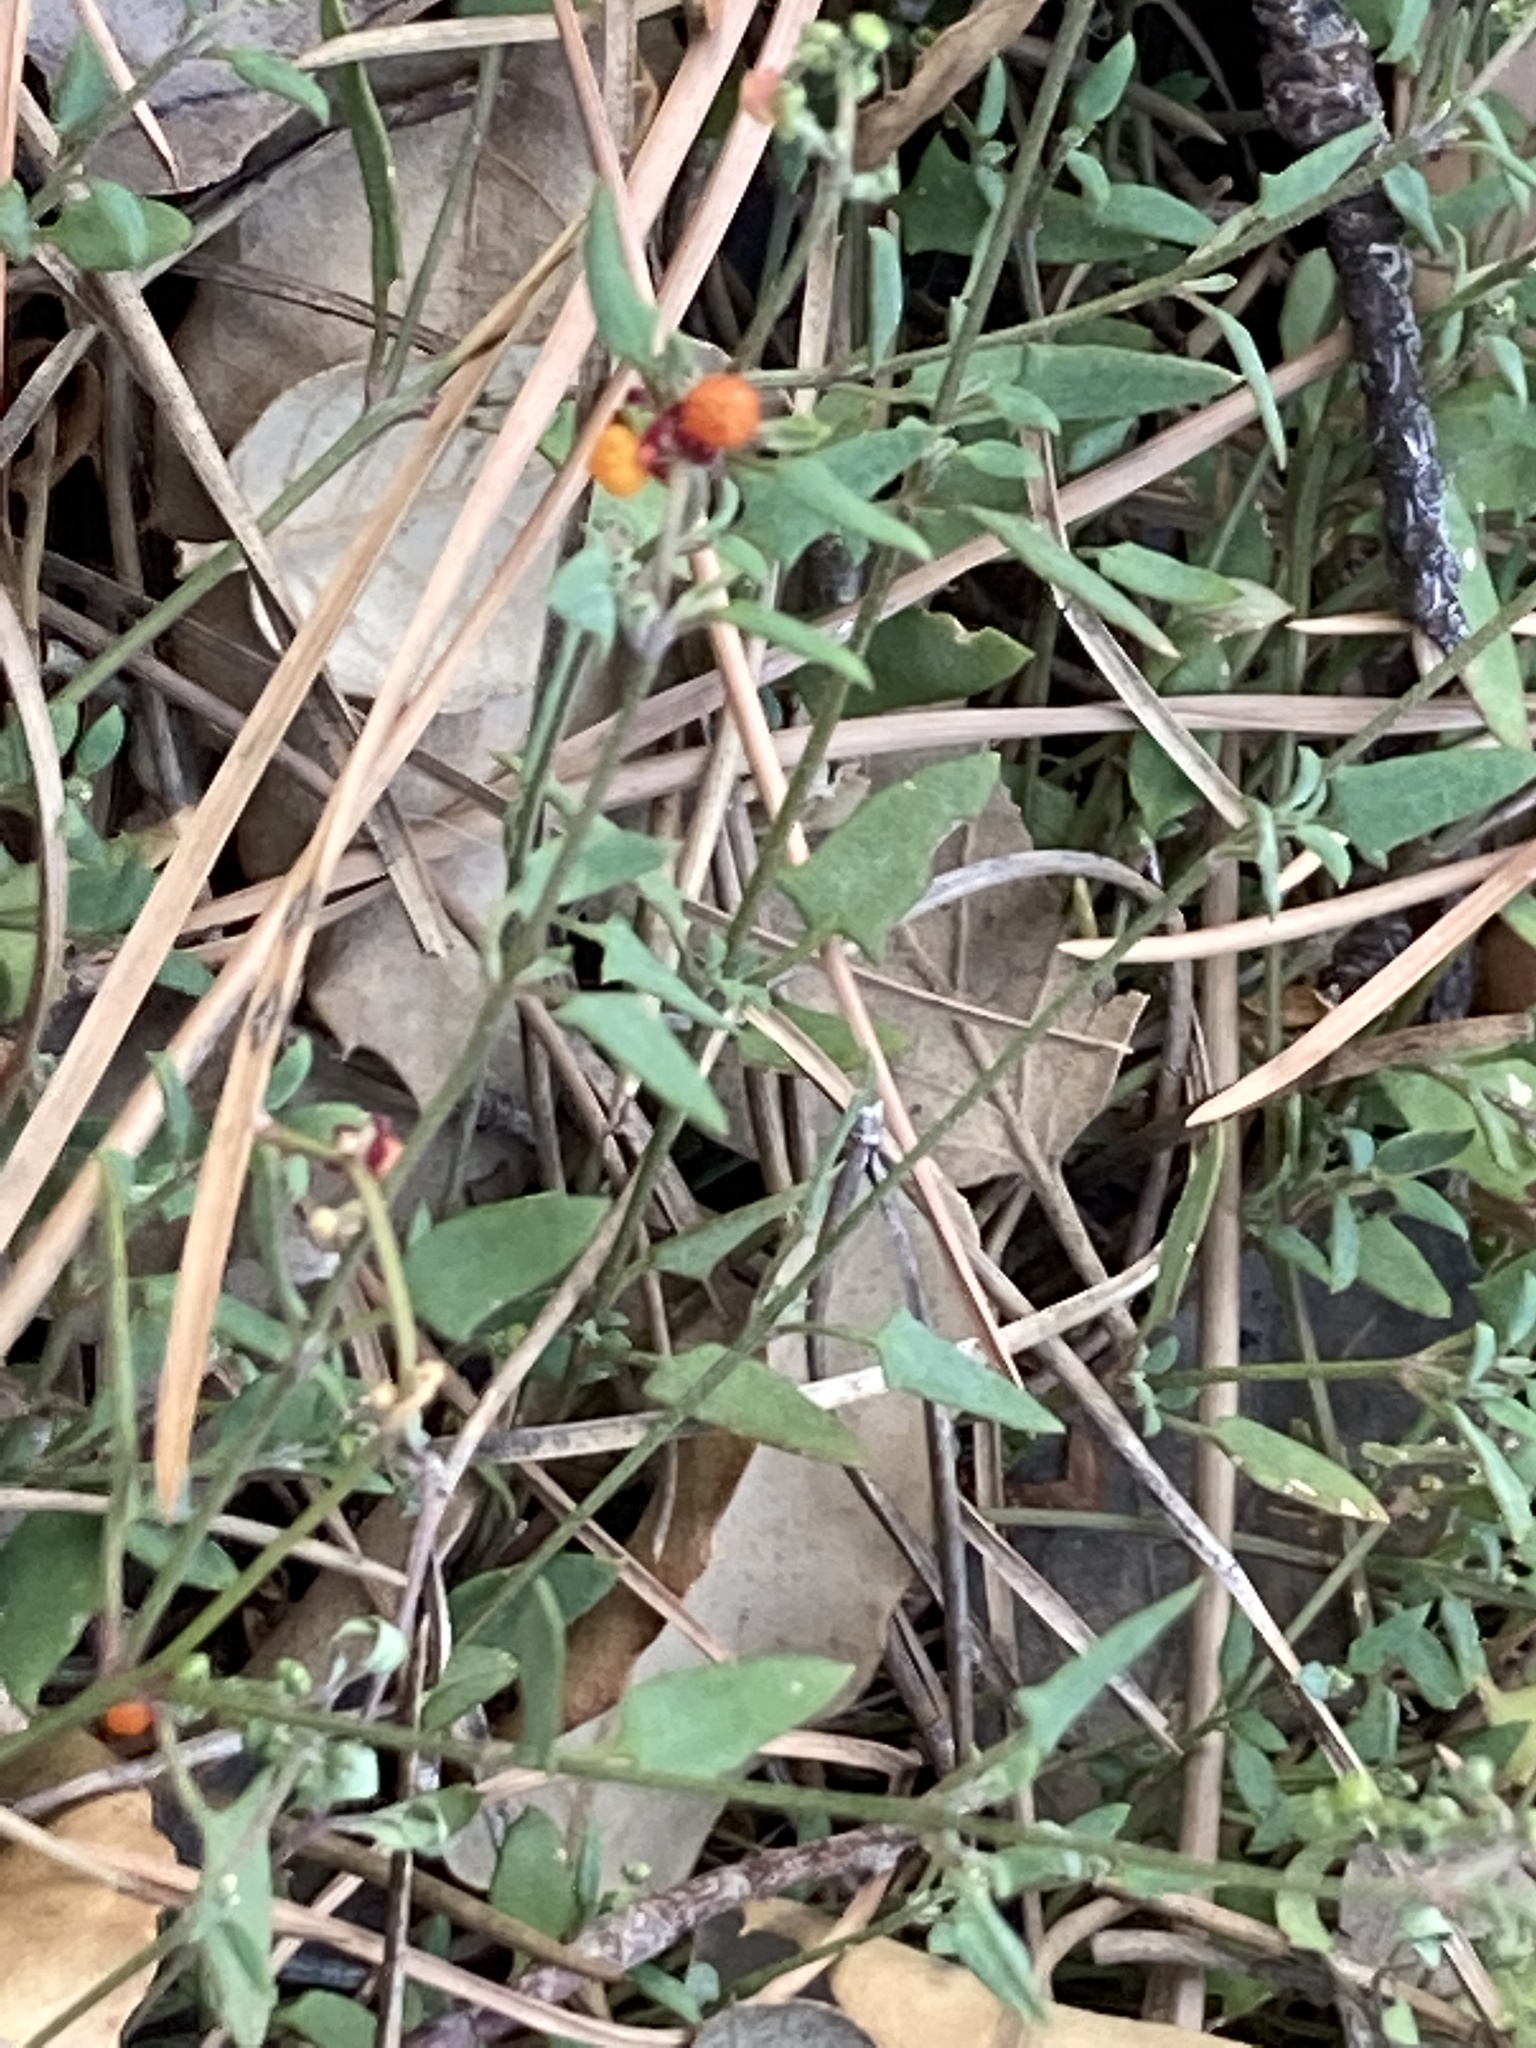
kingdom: Plantae
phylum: Tracheophyta
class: Magnoliopsida
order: Caryophyllales
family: Amaranthaceae
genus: Chenopodium
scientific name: Chenopodium nutans
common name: Climbing-saltbush
